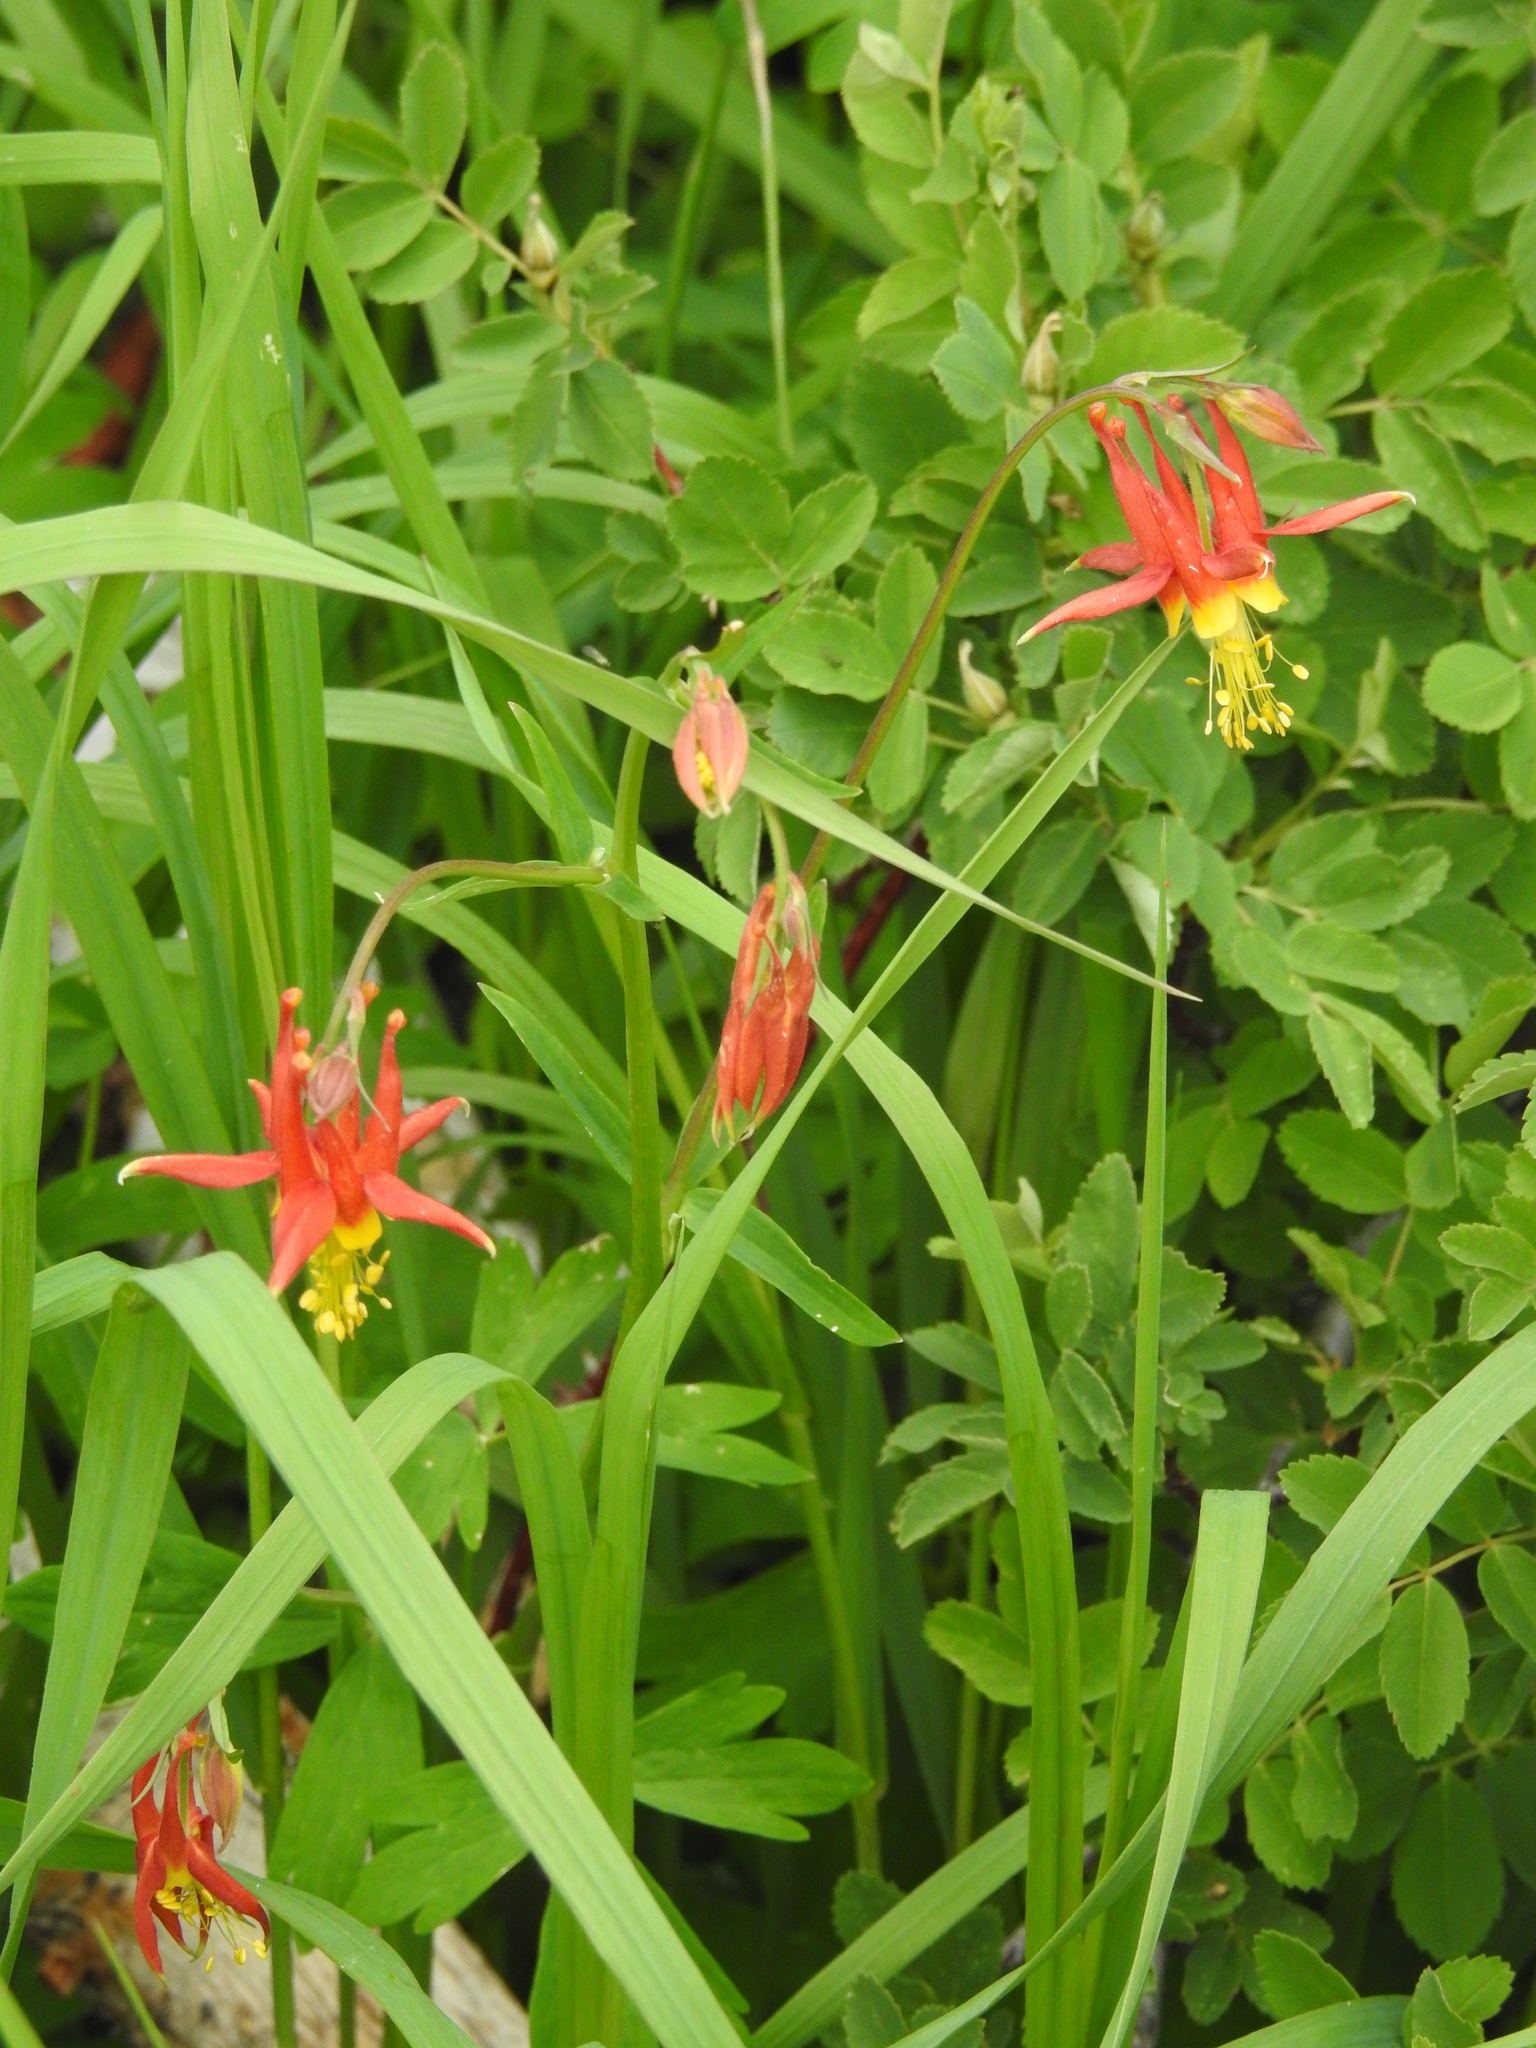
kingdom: Plantae
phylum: Tracheophyta
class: Magnoliopsida
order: Ranunculales
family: Ranunculaceae
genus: Aquilegia
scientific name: Aquilegia formosa
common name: Sitka columbine
